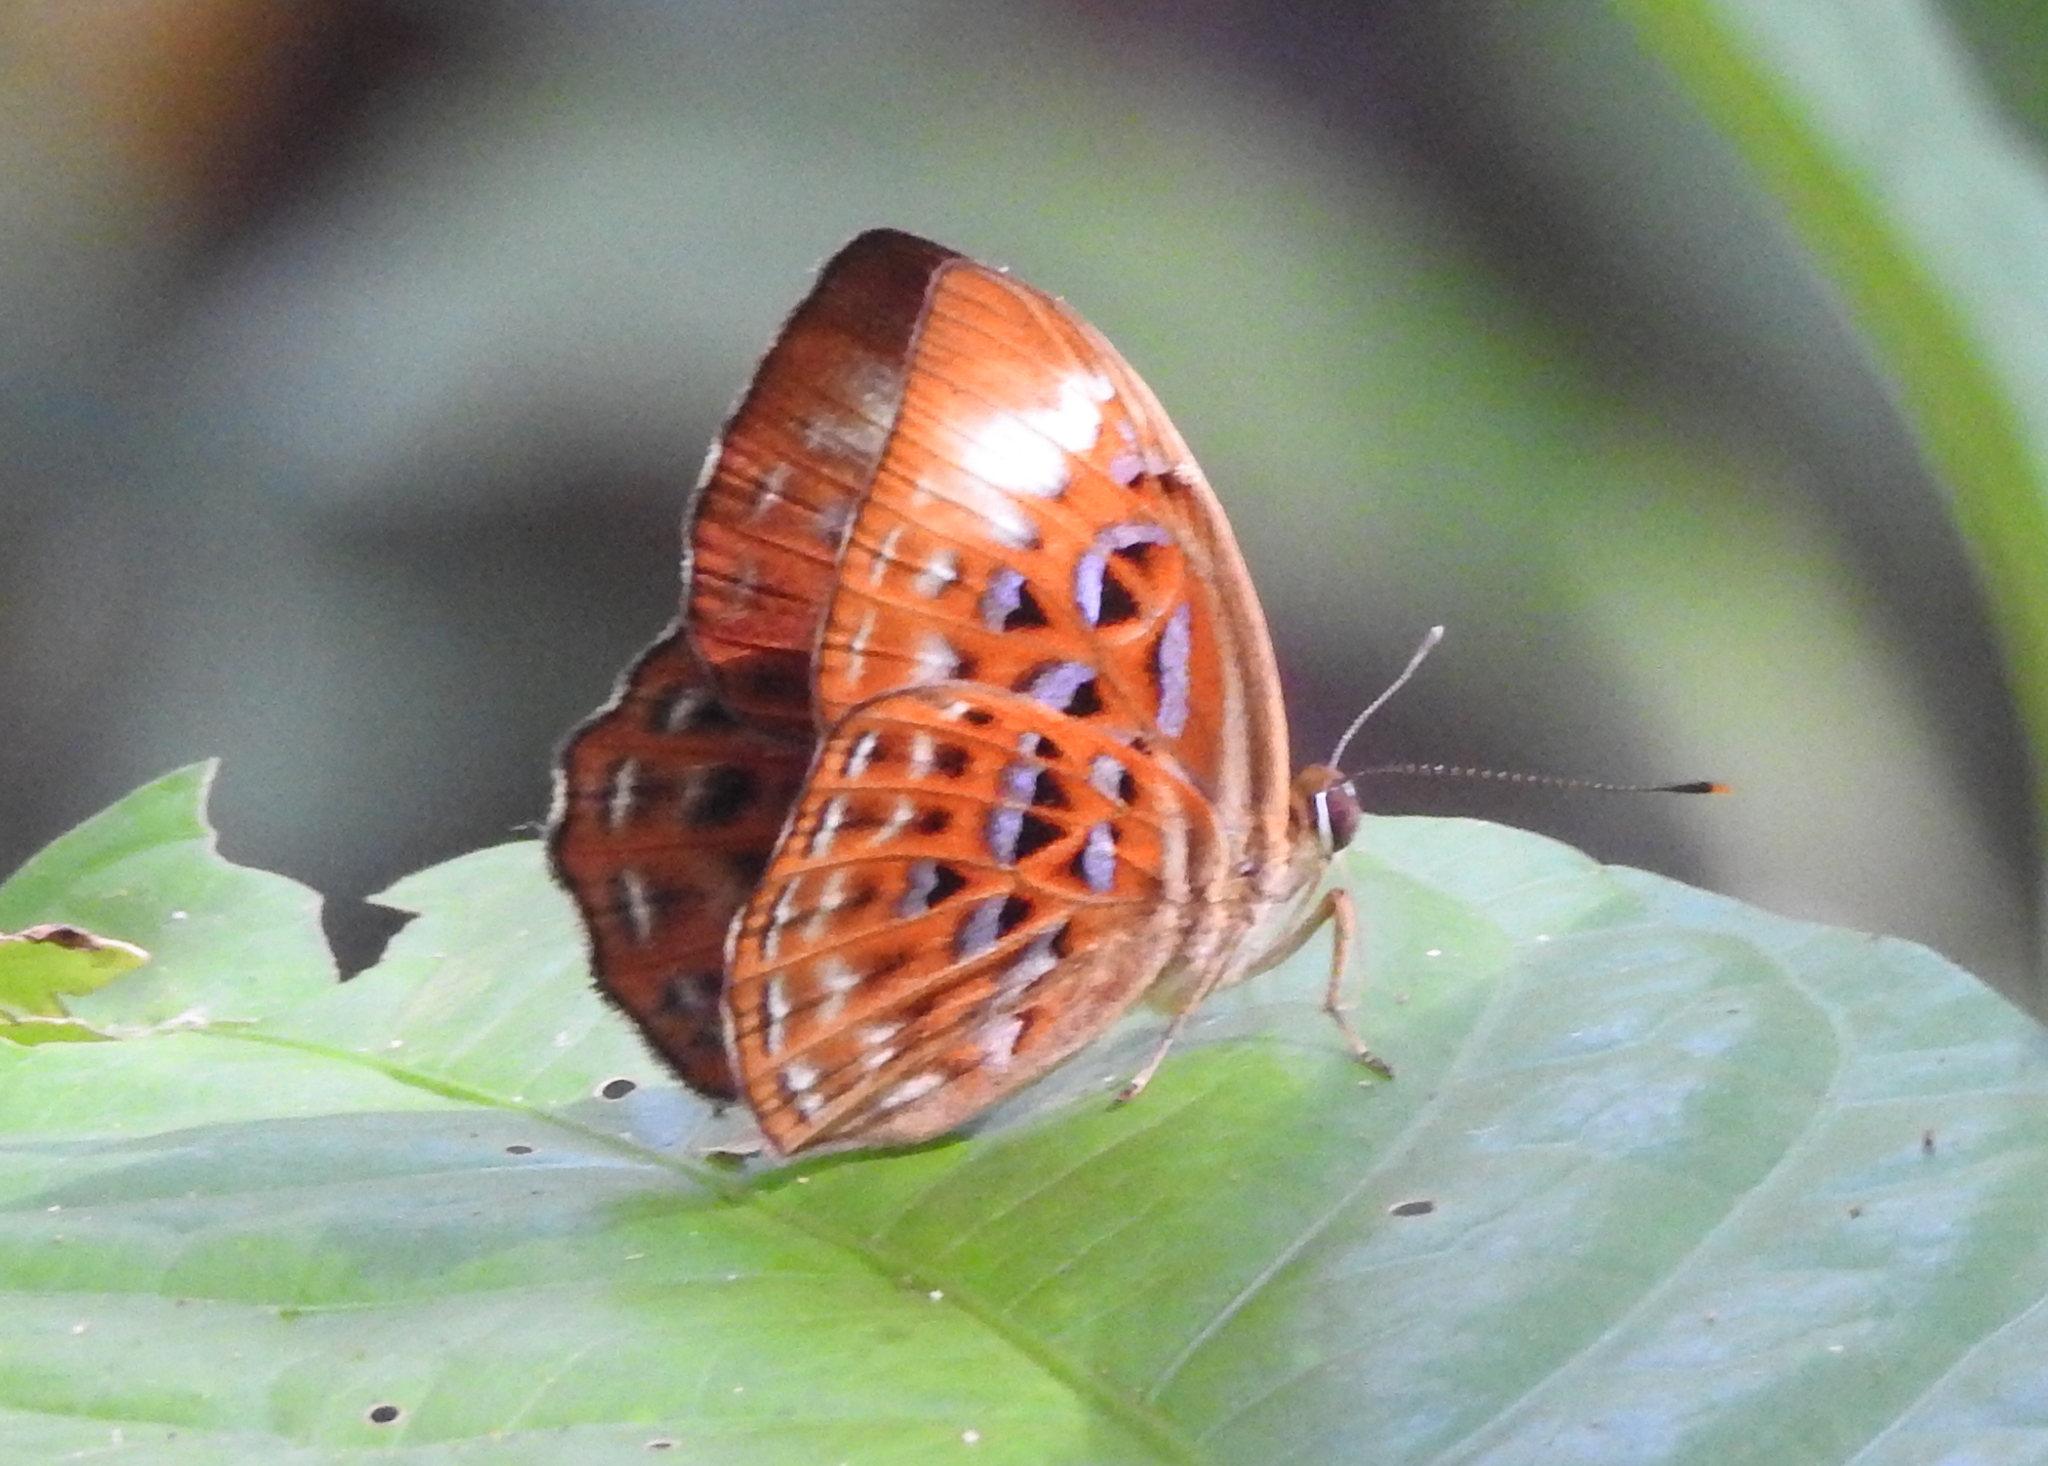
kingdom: Animalia
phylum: Arthropoda
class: Insecta
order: Lepidoptera
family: Erebidae
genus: Dysschema
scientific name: Dysschema
